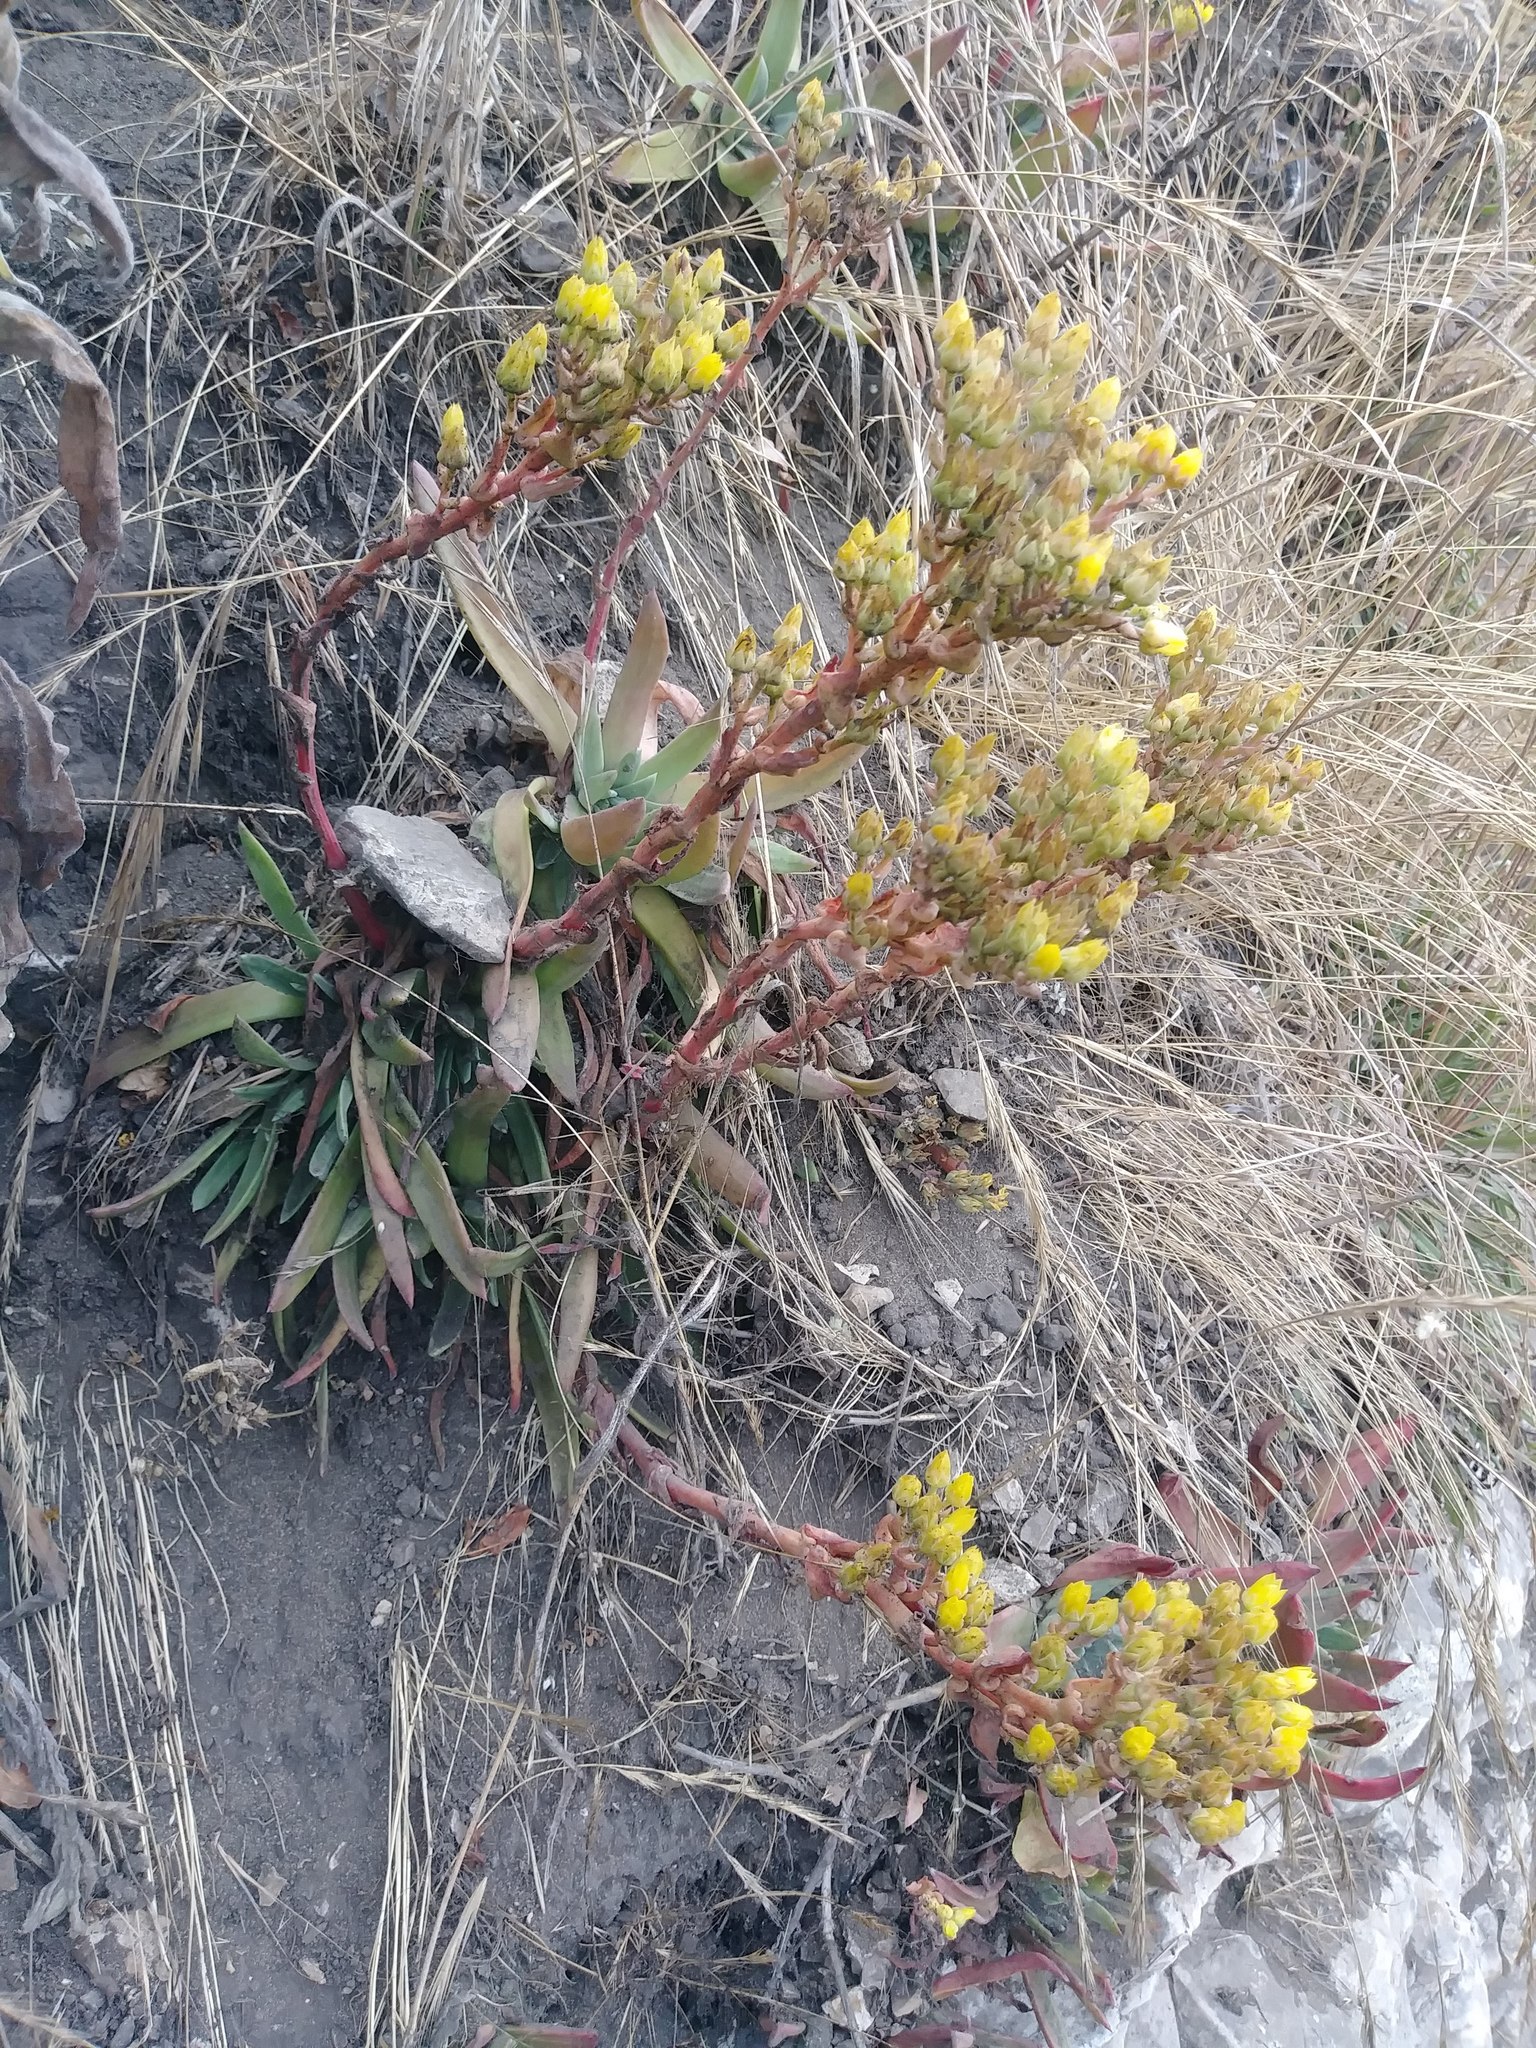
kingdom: Plantae
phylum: Tracheophyta
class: Magnoliopsida
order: Saxifragales
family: Crassulaceae
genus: Dudleya
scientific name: Dudleya caespitosa
